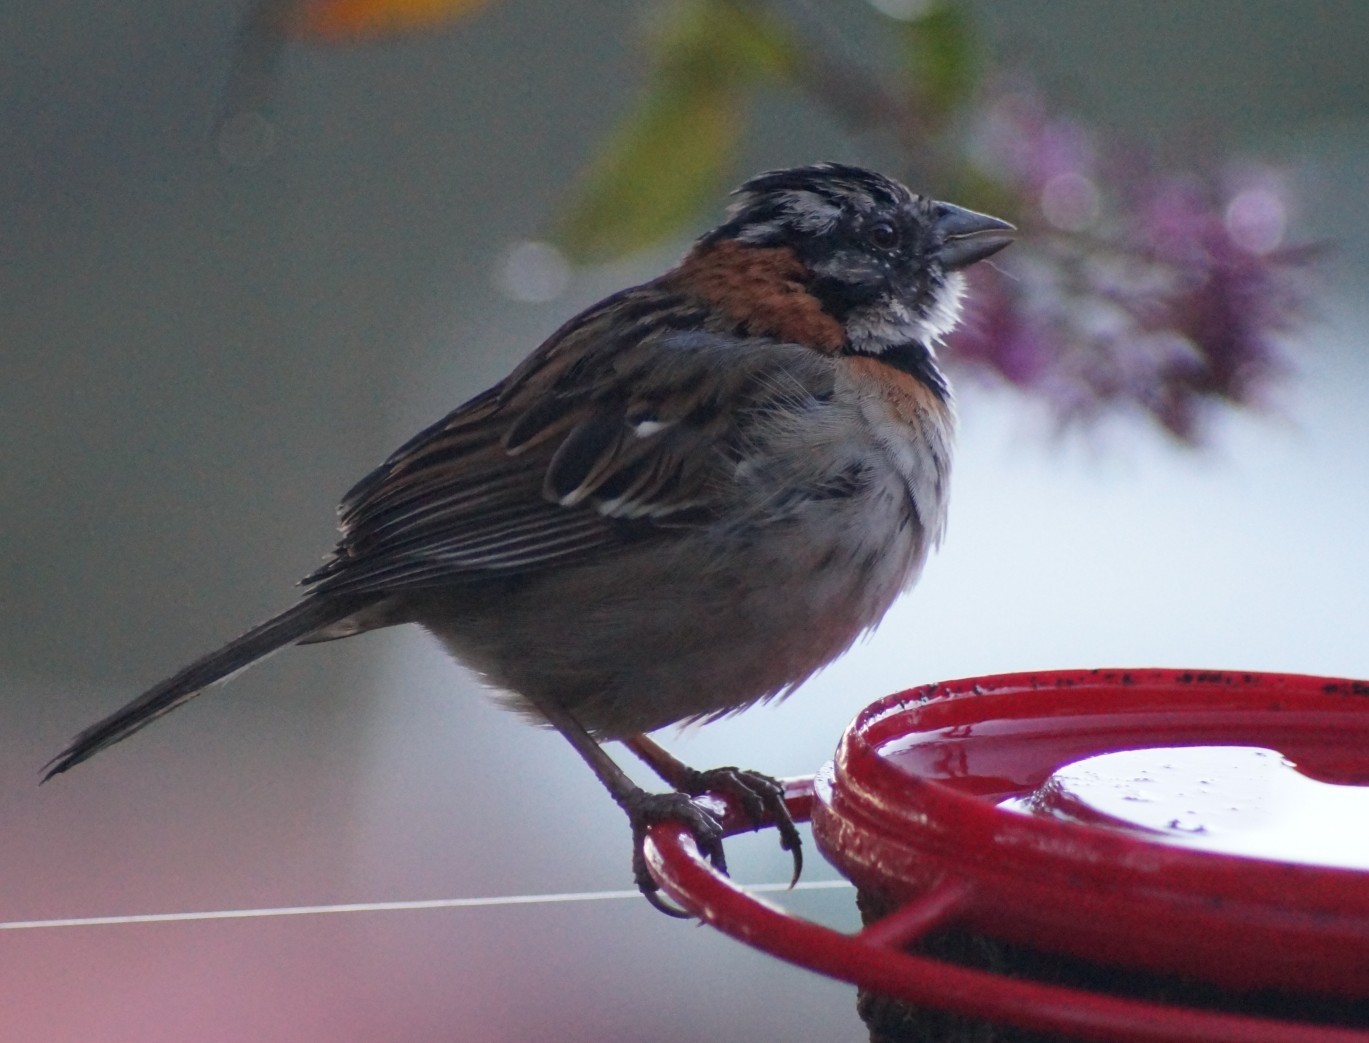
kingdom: Animalia
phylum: Chordata
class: Aves
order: Passeriformes
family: Passerellidae
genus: Zonotrichia
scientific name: Zonotrichia capensis
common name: Rufous-collared sparrow
